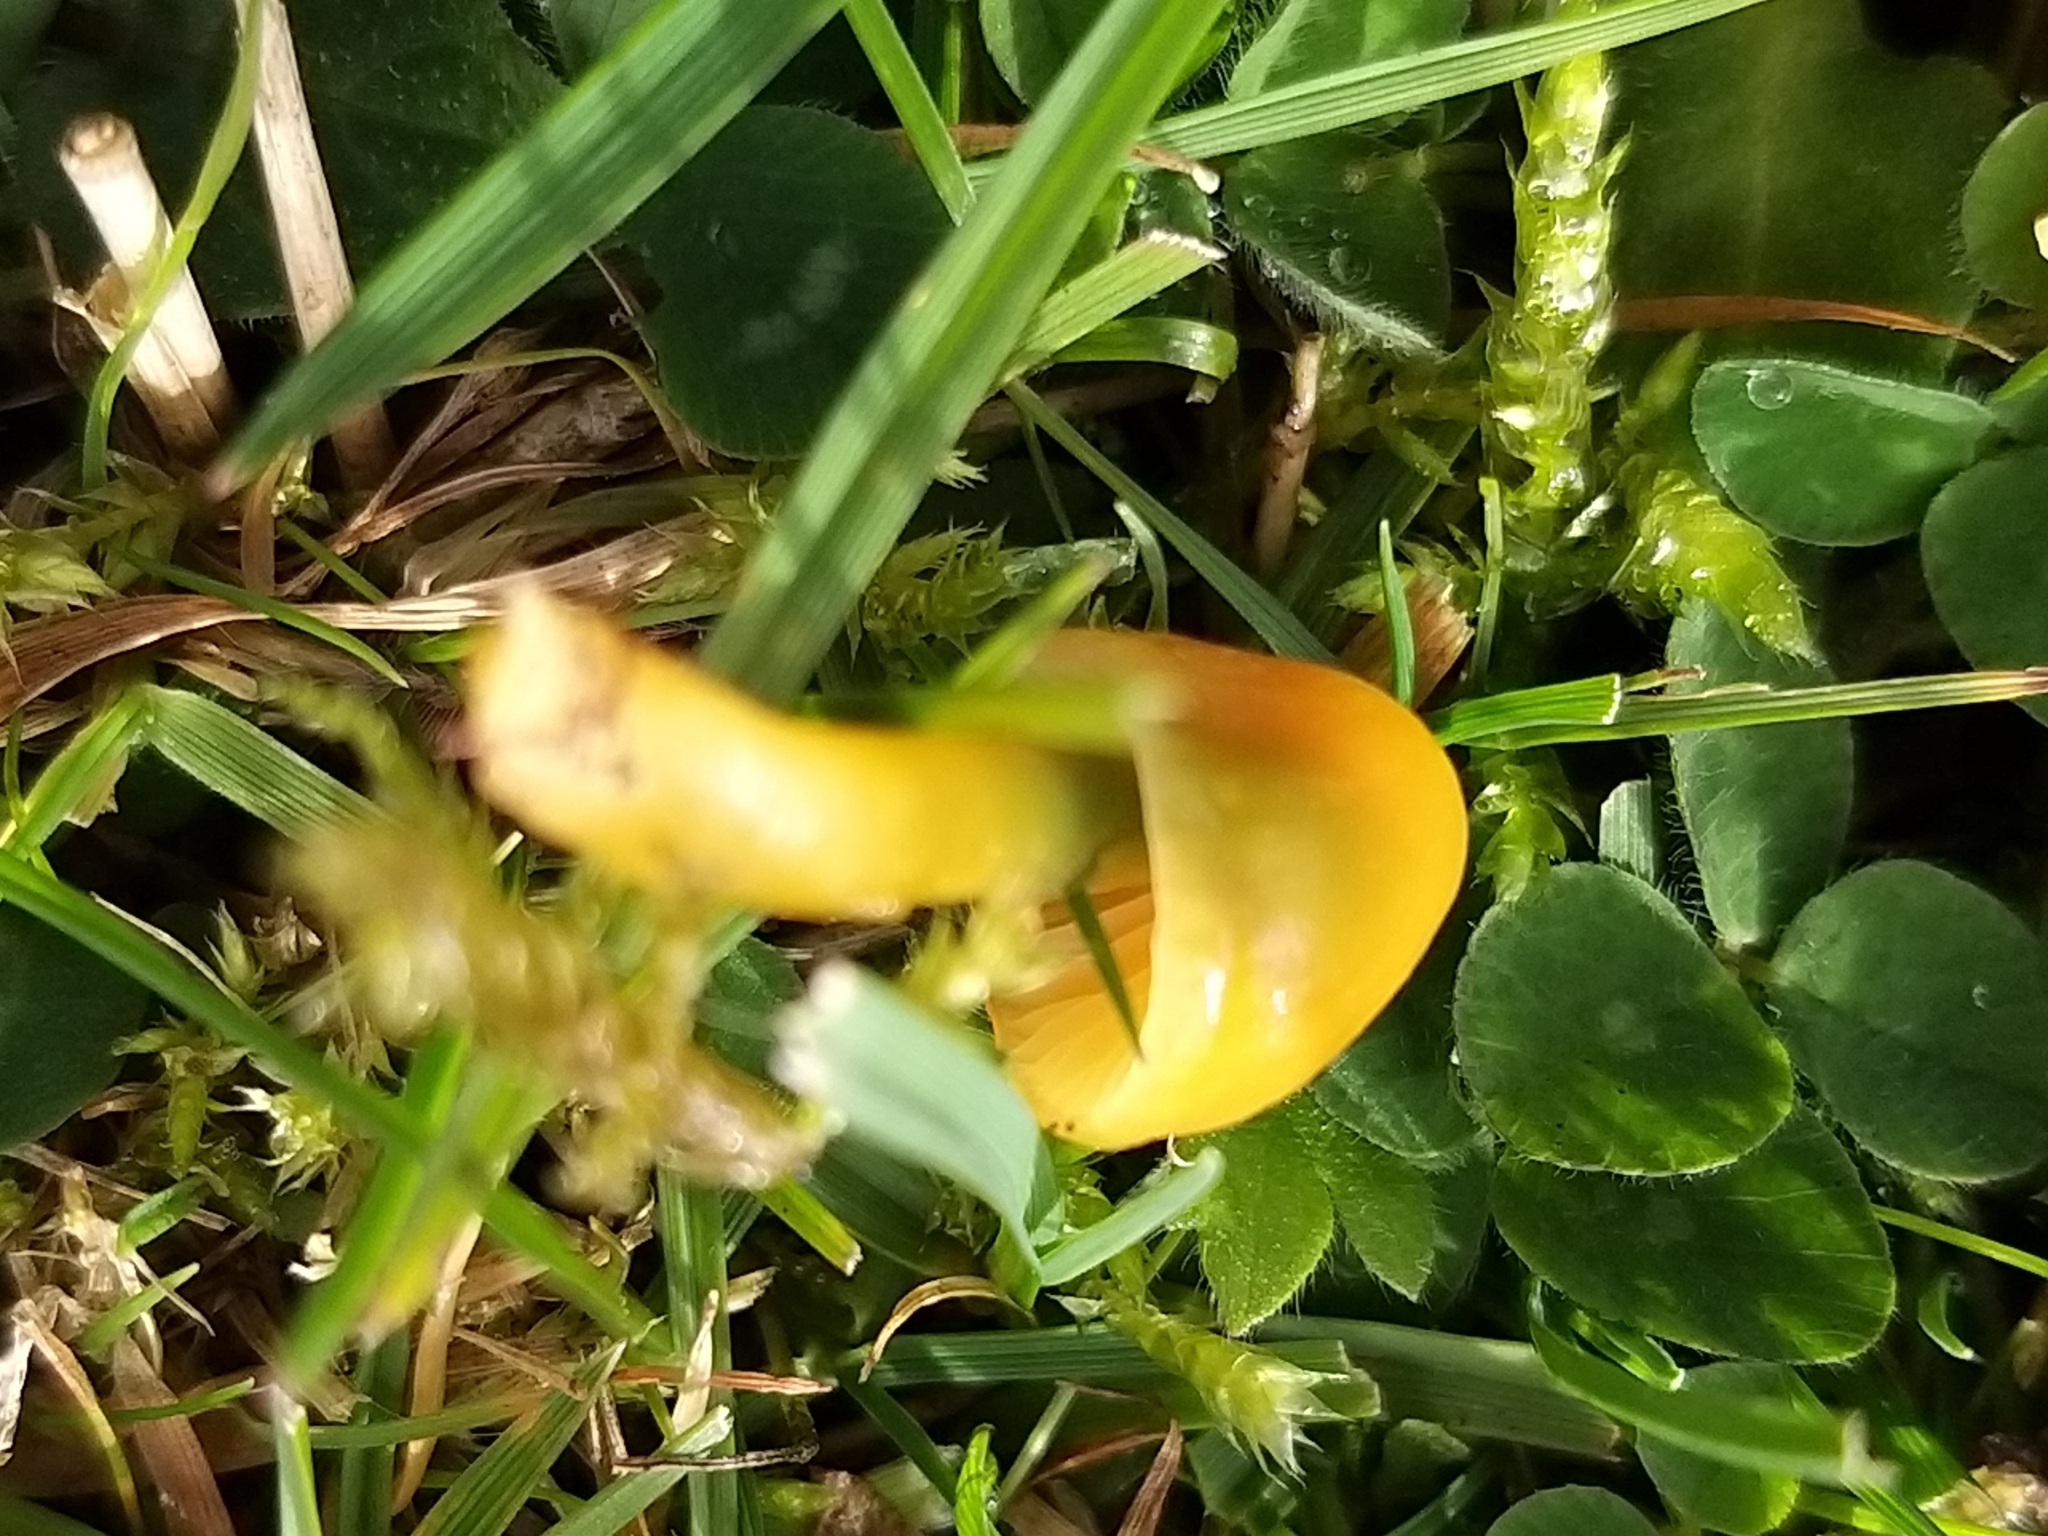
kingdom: Fungi
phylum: Basidiomycota
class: Agaricomycetes
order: Agaricales
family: Hygrophoraceae
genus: Gliophorus
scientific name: Gliophorus psittacinus
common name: Parrot wax-cap
